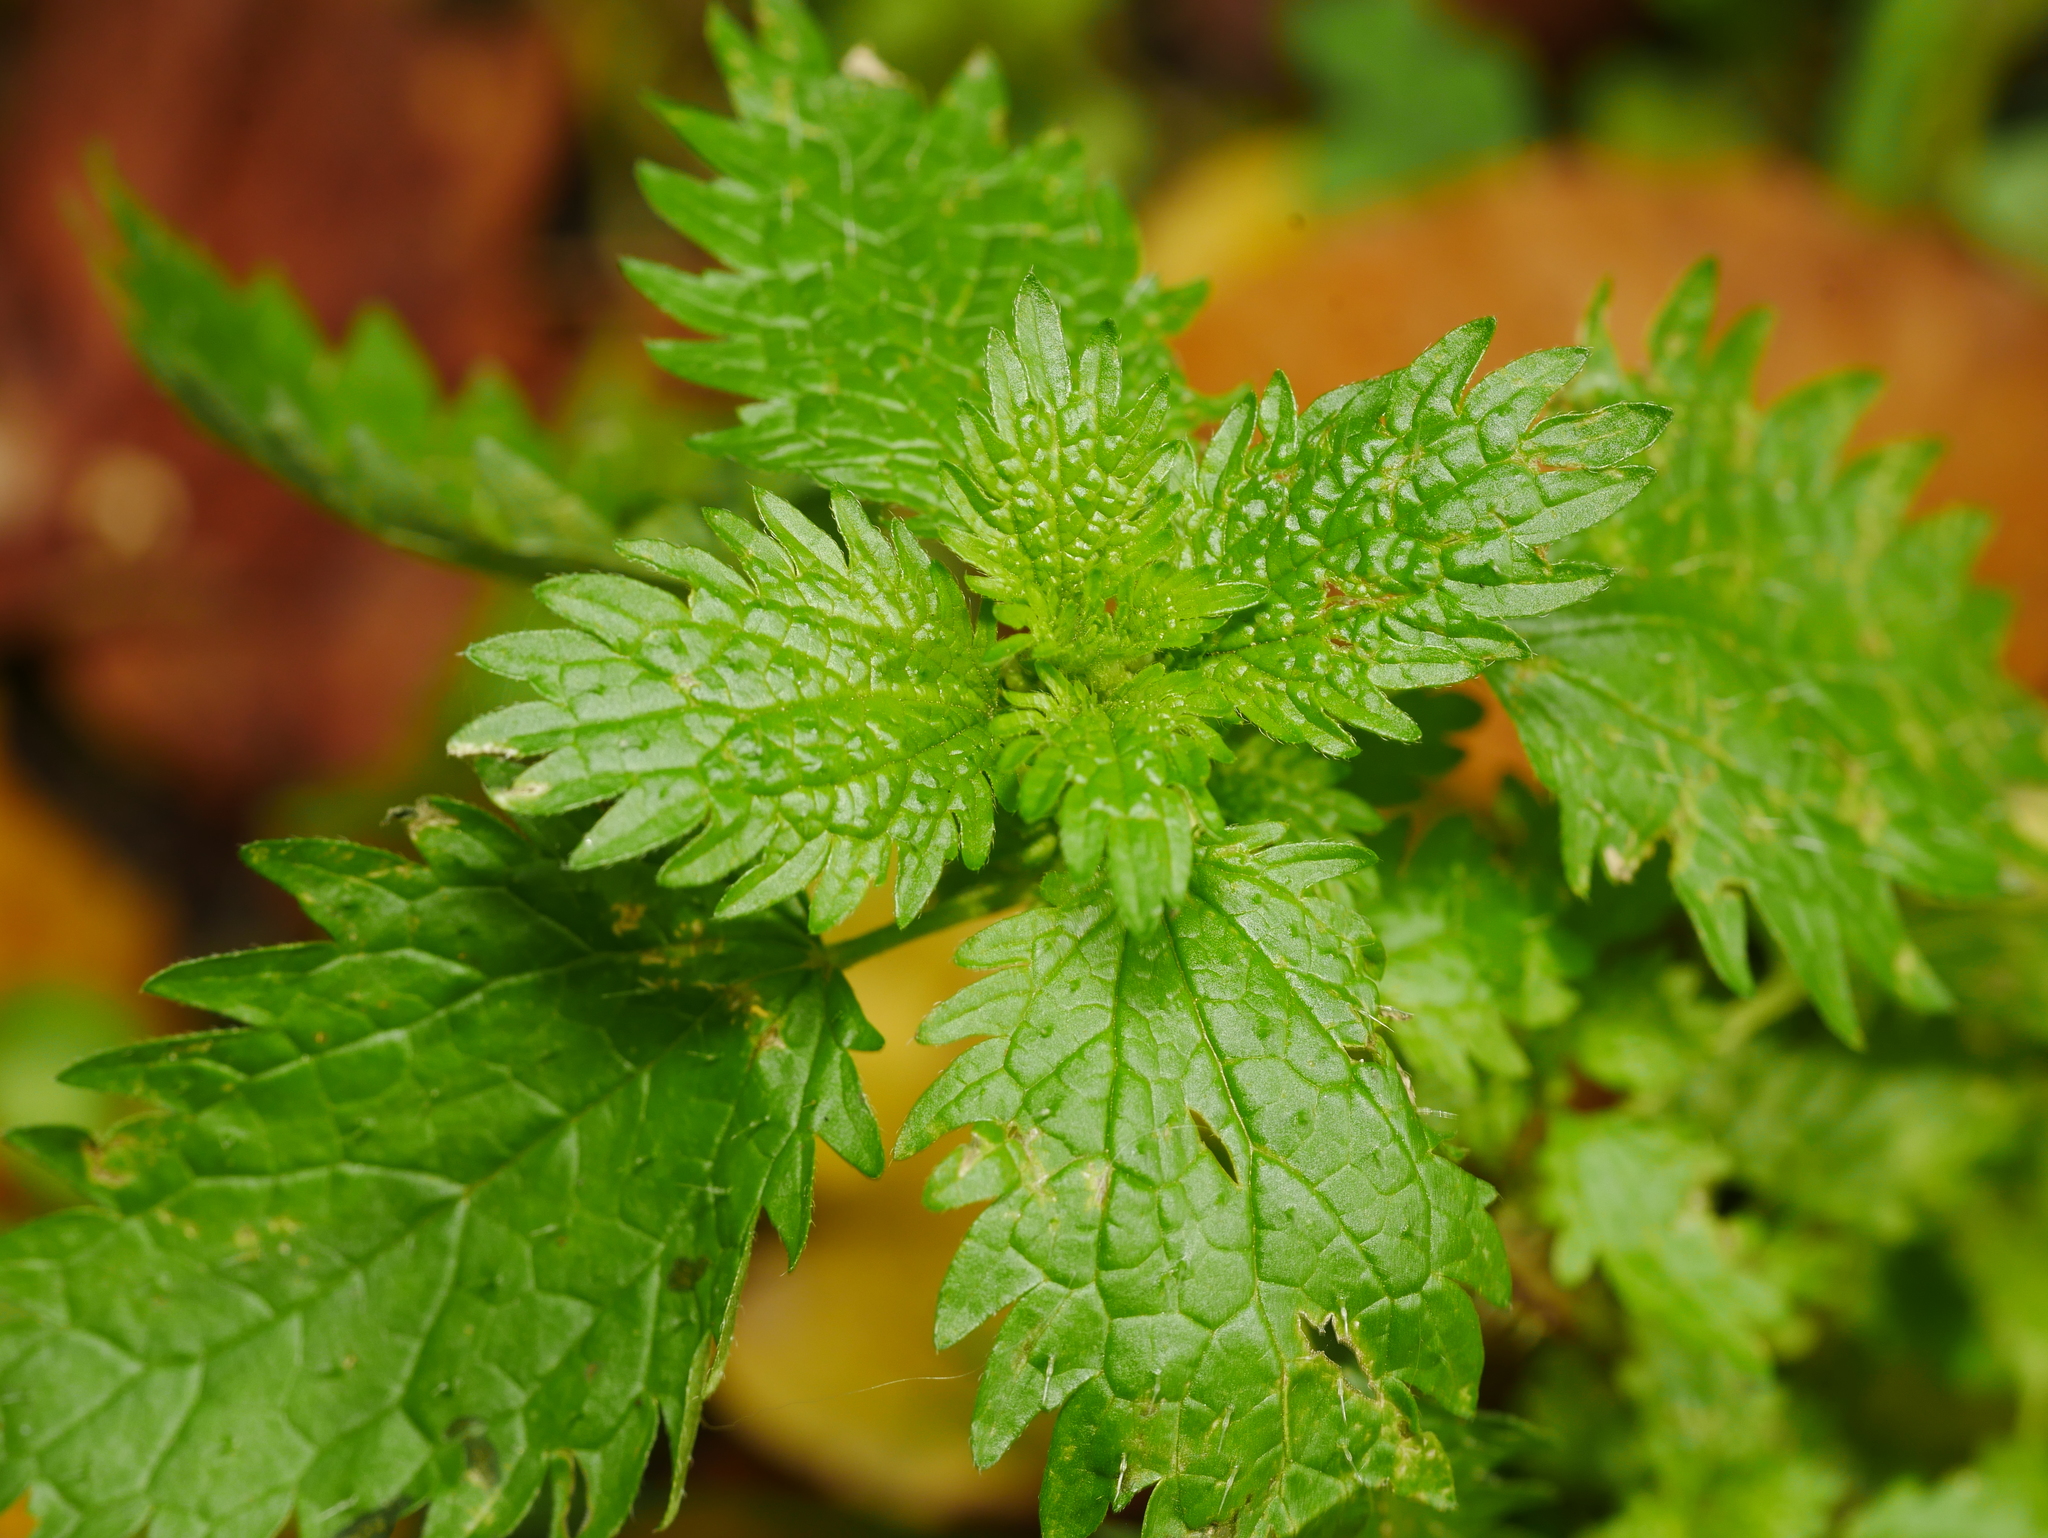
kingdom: Plantae
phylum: Tracheophyta
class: Magnoliopsida
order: Rosales
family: Urticaceae
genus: Urtica
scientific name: Urtica urens
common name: Dwarf nettle
